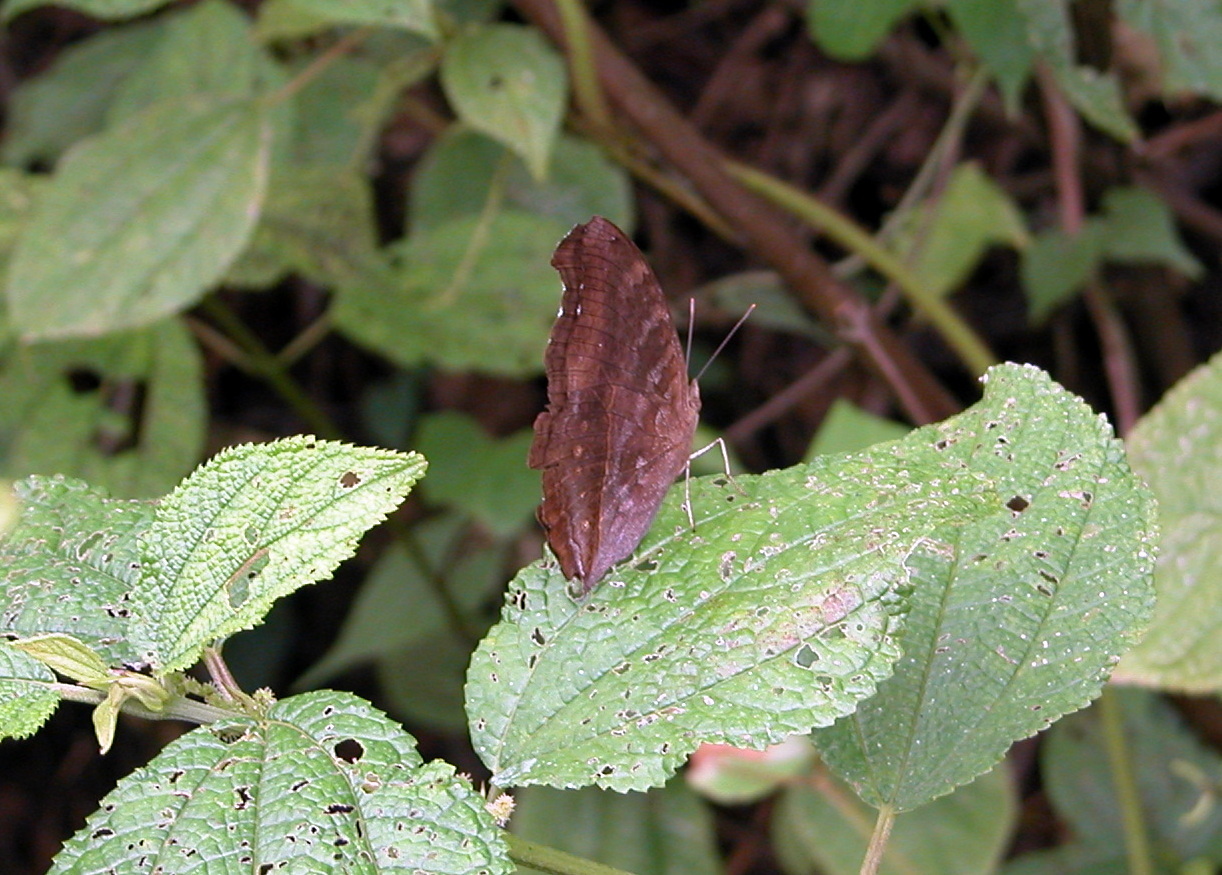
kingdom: Animalia
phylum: Arthropoda
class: Insecta
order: Lepidoptera
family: Nymphalidae
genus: Junonia
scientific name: Junonia iphita
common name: Chocolate pansy
